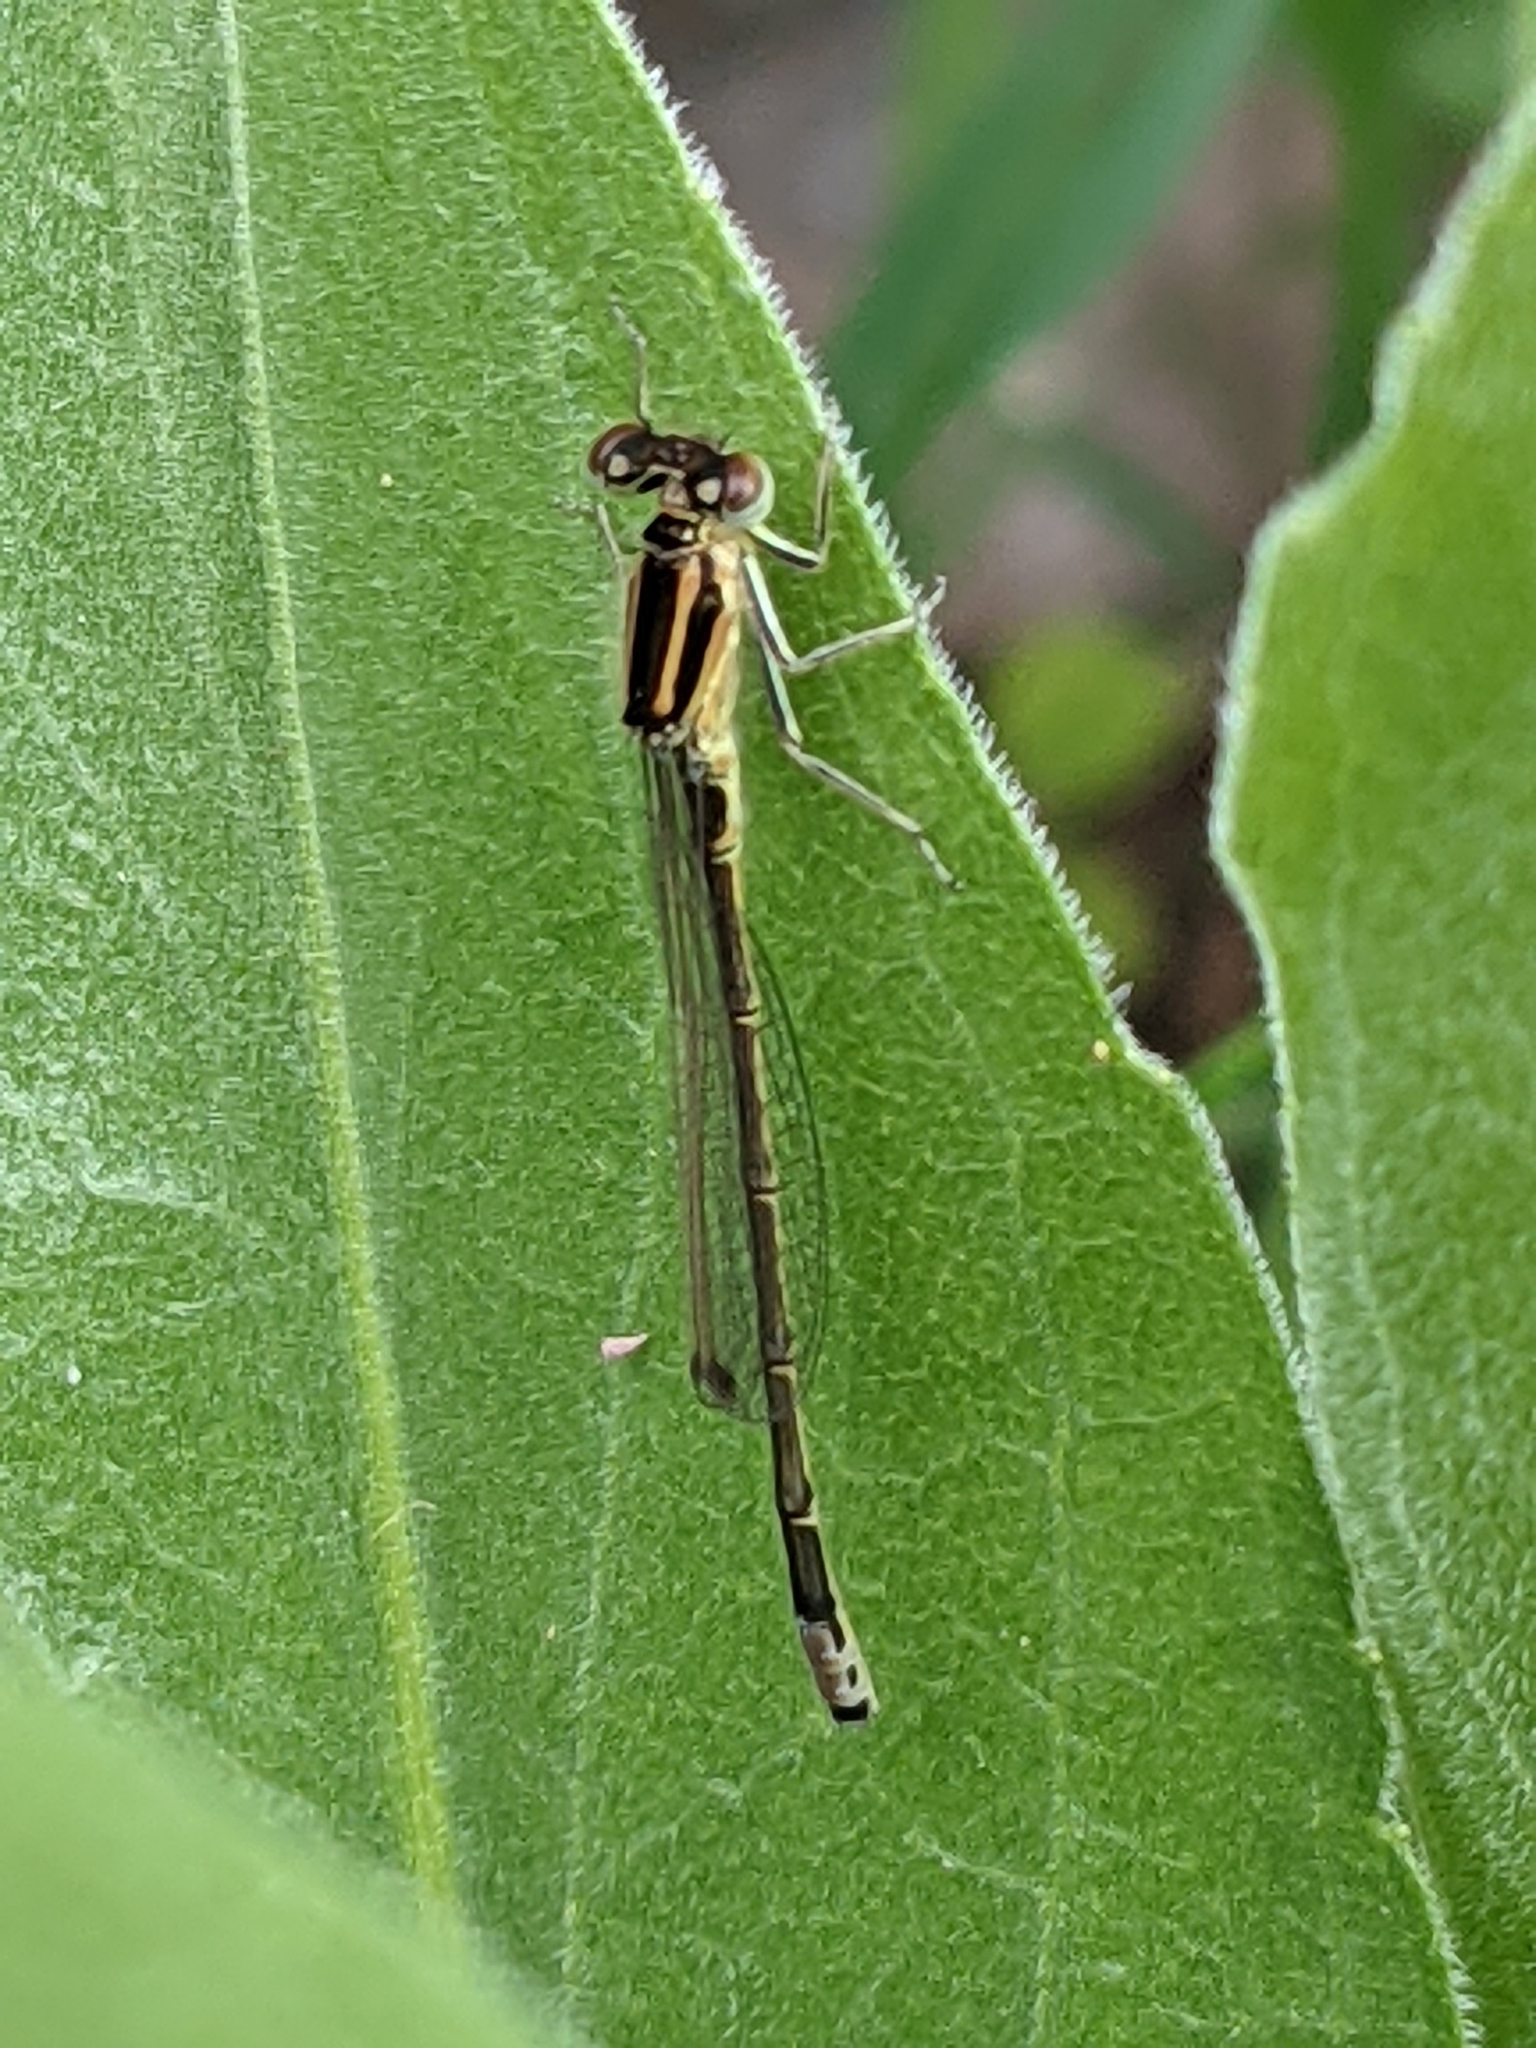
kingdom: Animalia
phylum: Arthropoda
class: Insecta
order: Odonata
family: Coenagrionidae
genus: Ischnura
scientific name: Ischnura verticalis
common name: Eastern forktail
